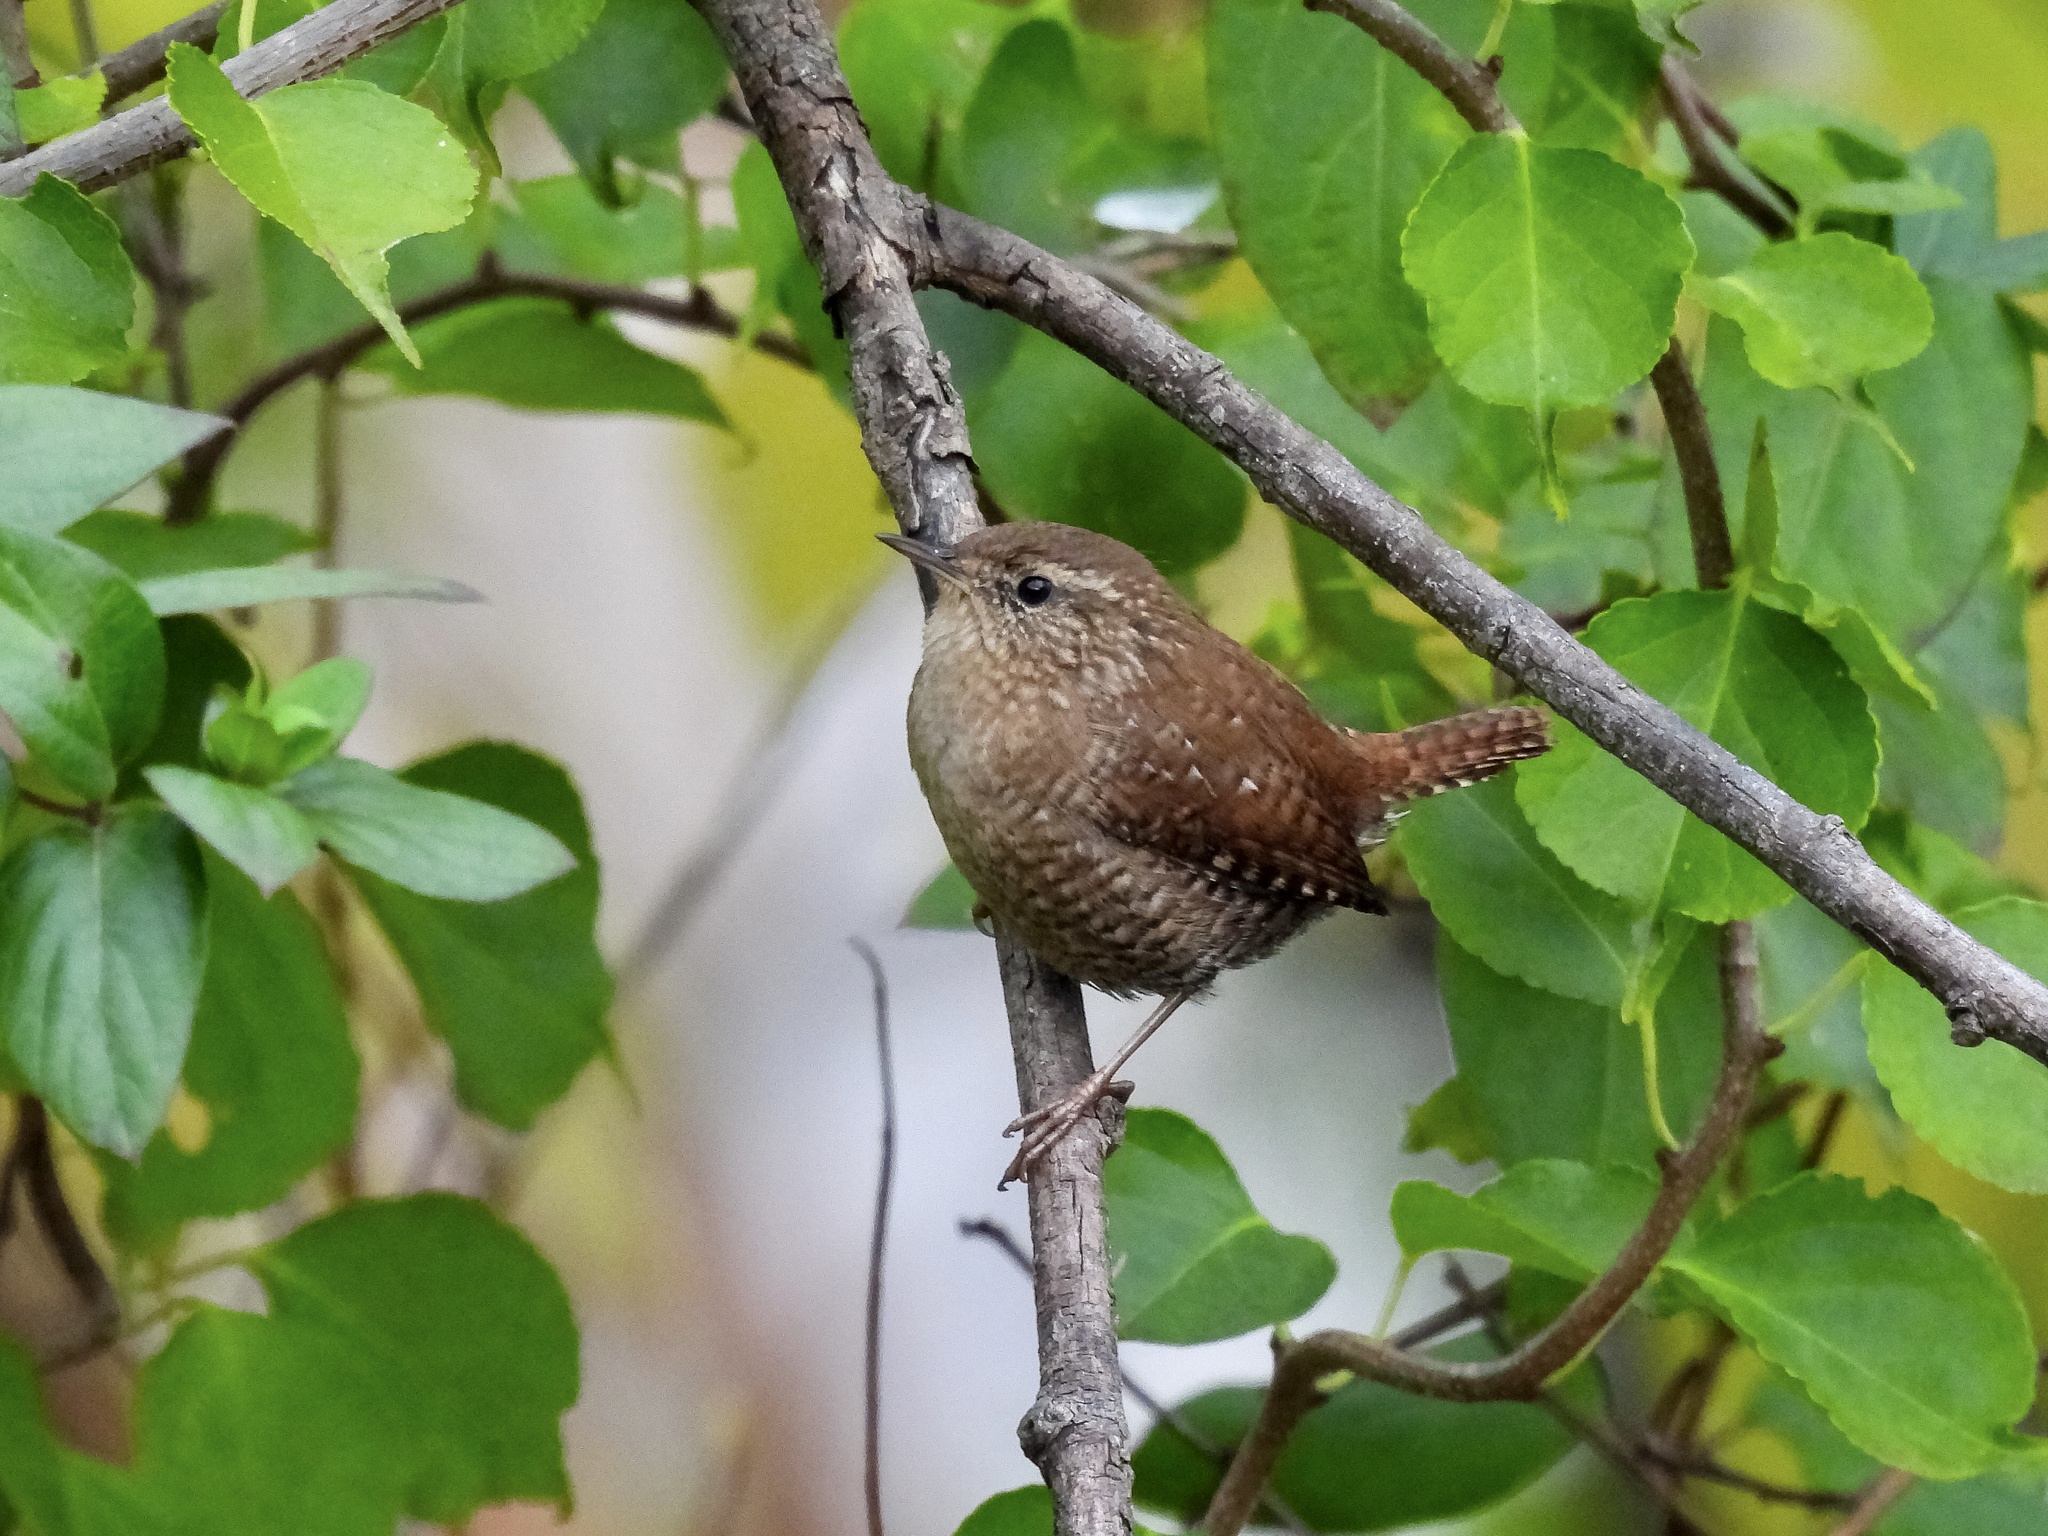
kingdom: Animalia
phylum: Chordata
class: Aves
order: Passeriformes
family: Troglodytidae
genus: Troglodytes
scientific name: Troglodytes hiemalis
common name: Winter wren
